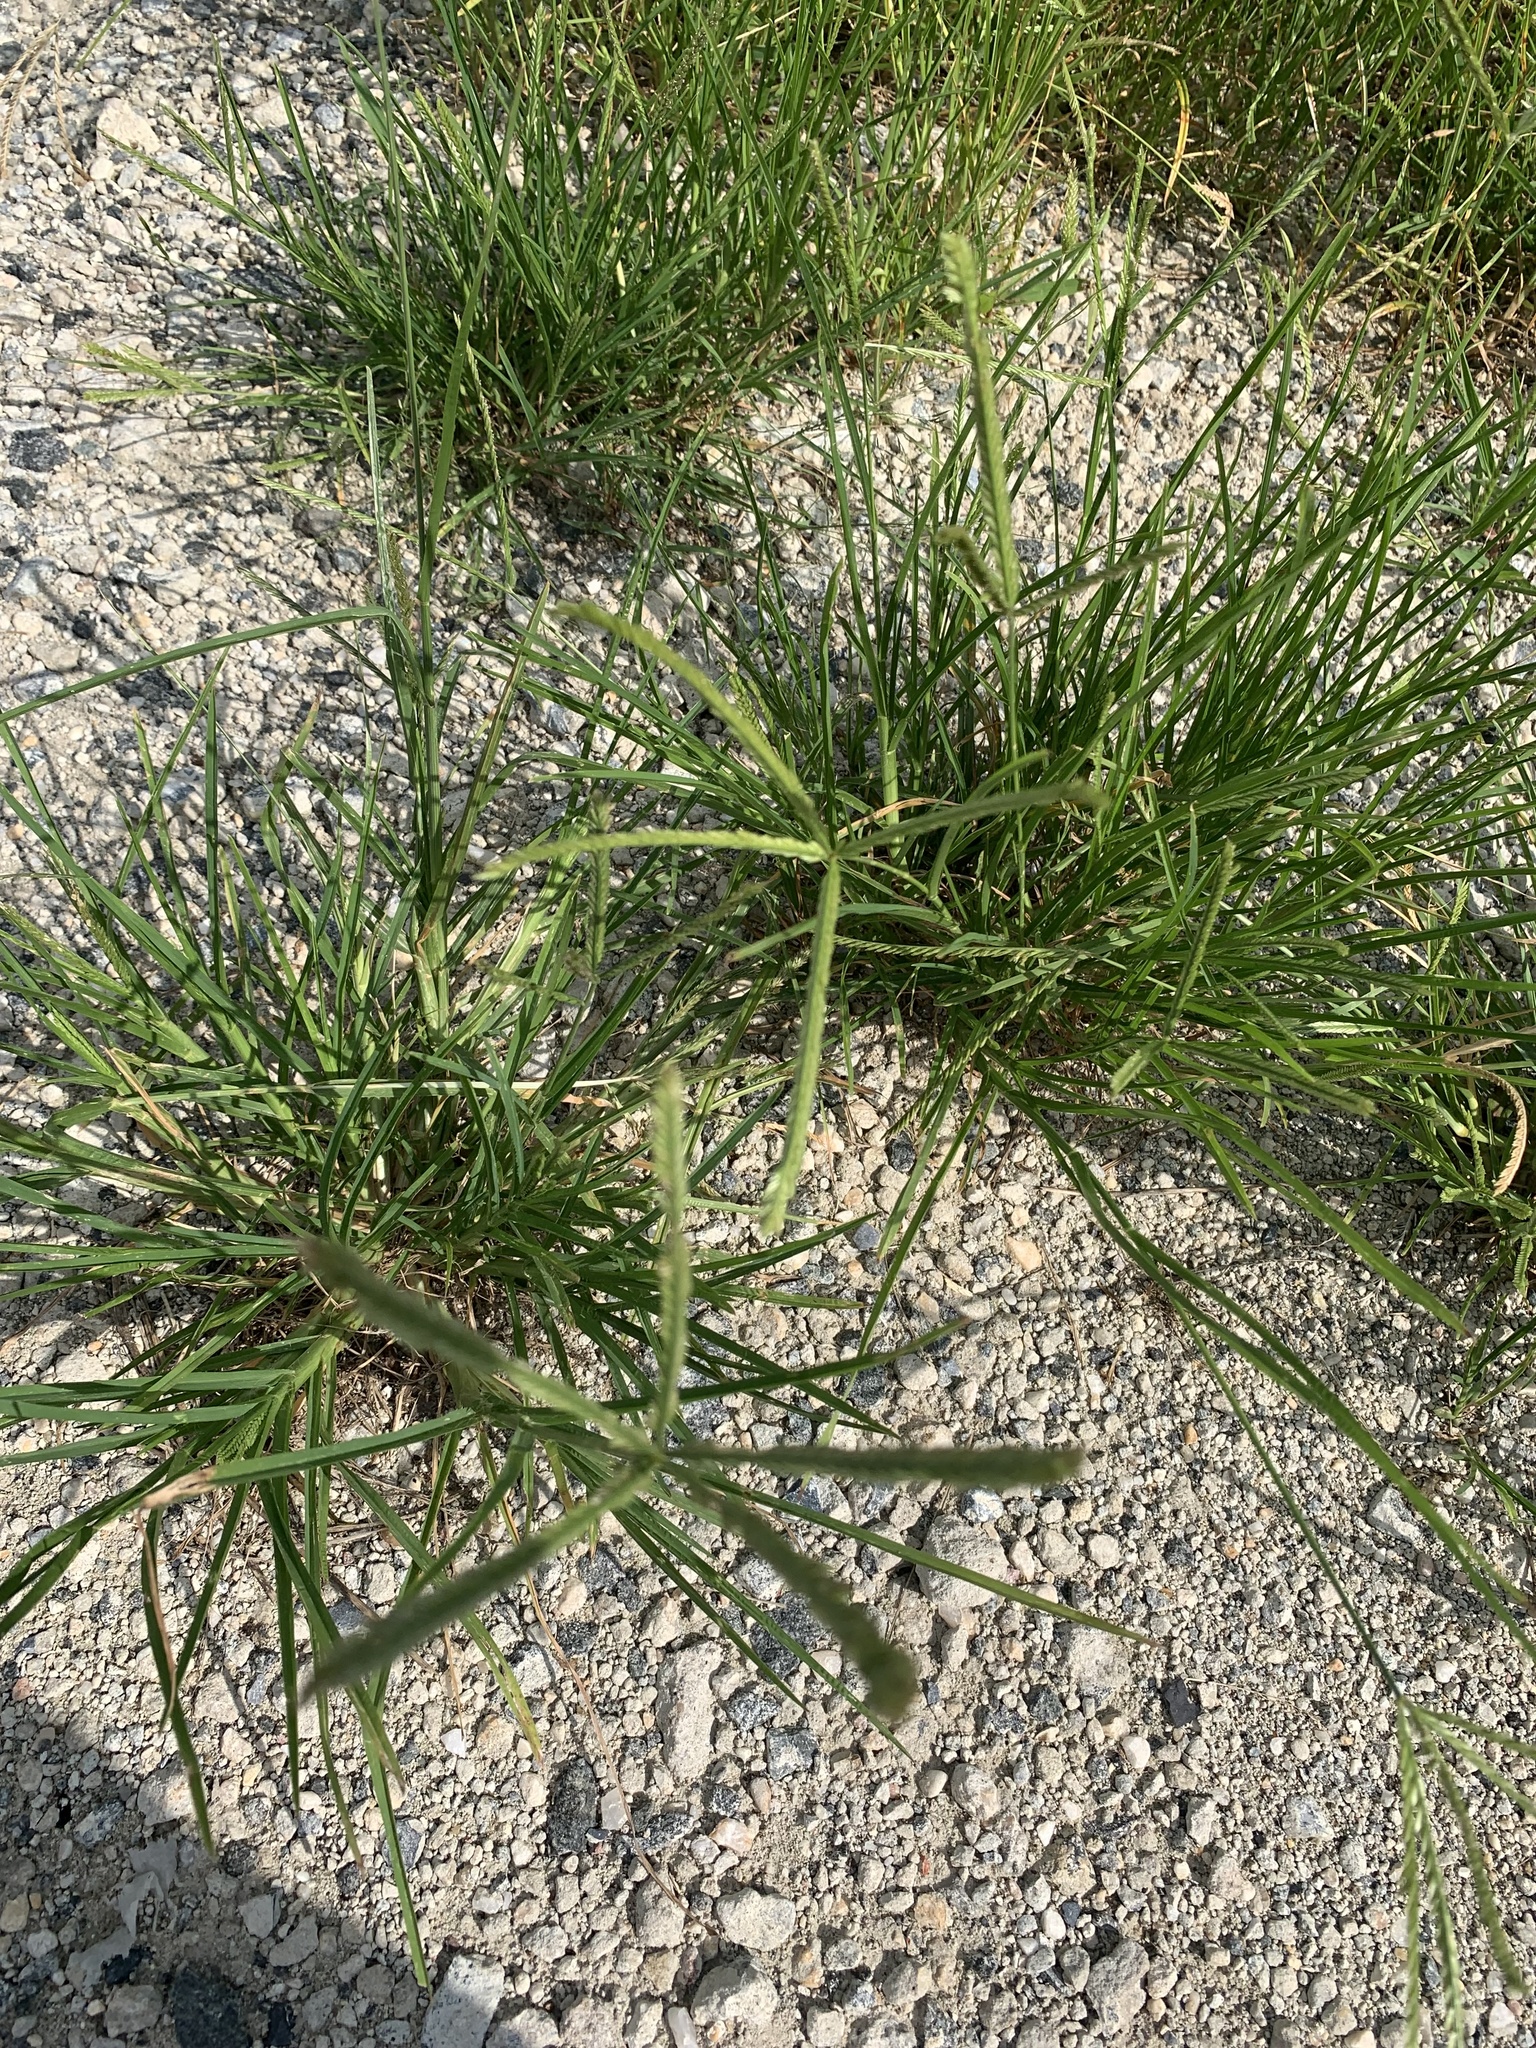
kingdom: Plantae
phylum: Tracheophyta
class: Liliopsida
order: Poales
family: Poaceae
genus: Eleusine
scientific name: Eleusine indica
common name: Yard-grass
